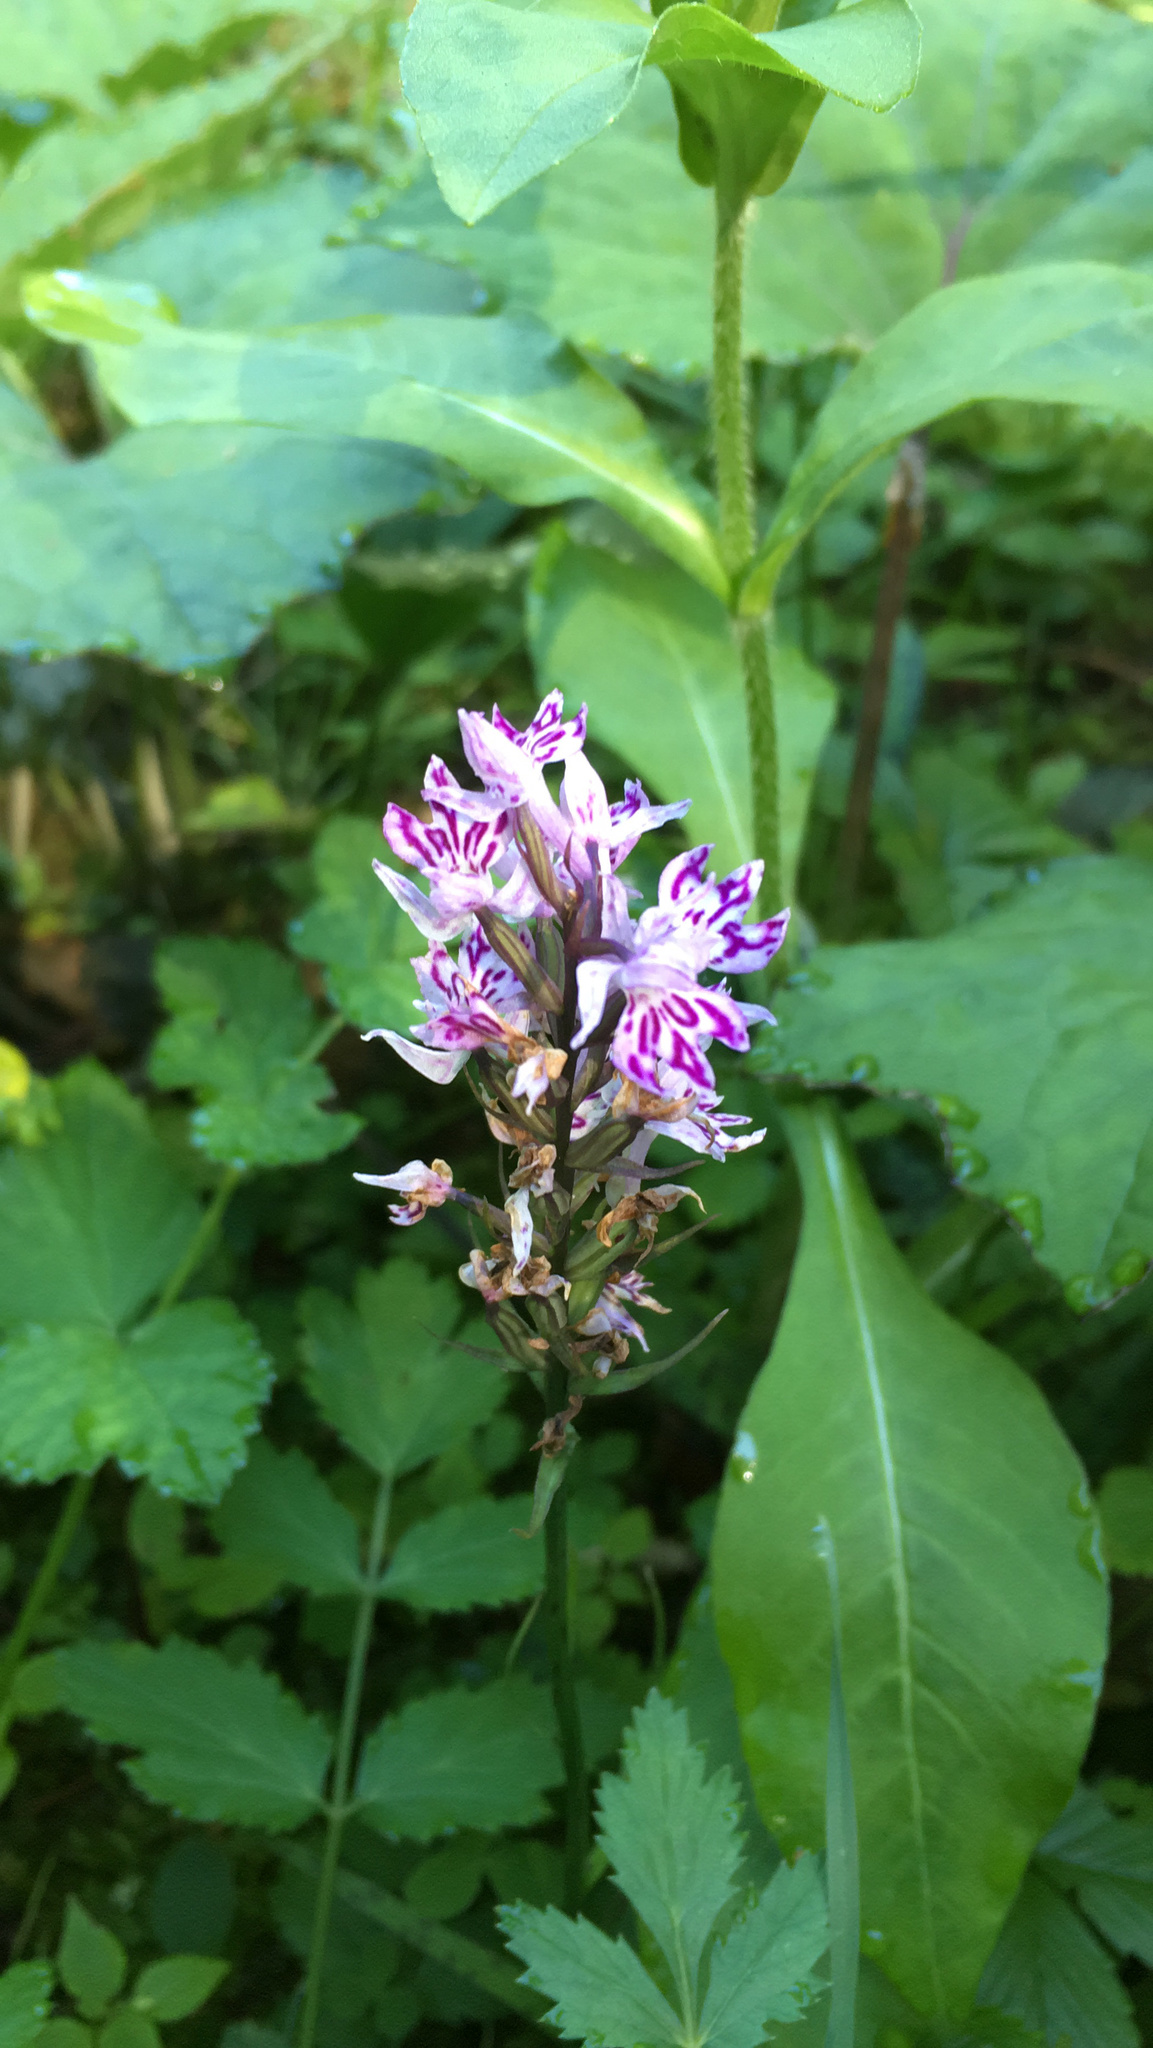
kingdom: Plantae
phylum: Tracheophyta
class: Liliopsida
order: Asparagales
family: Orchidaceae
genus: Dactylorhiza
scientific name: Dactylorhiza maculata
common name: Heath spotted-orchid
